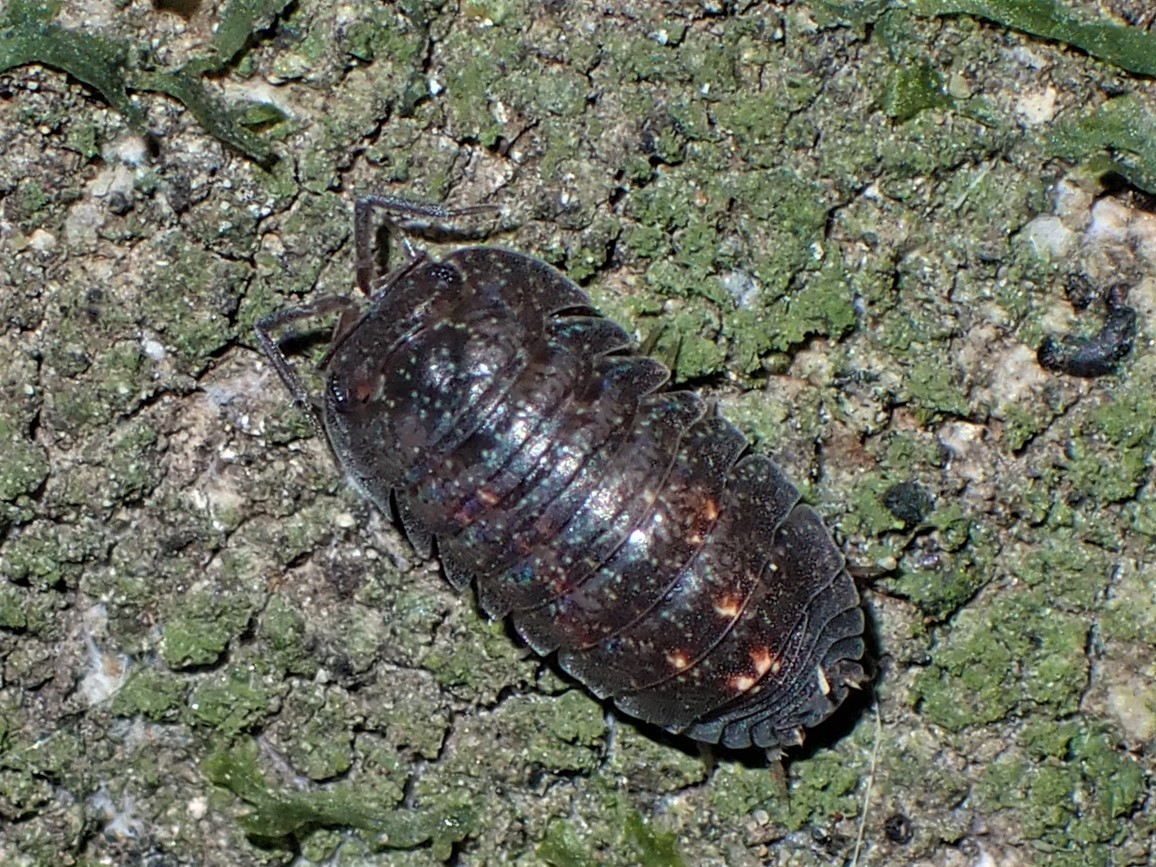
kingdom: Animalia
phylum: Arthropoda
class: Malacostraca
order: Isopoda
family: Armadillidae
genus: Cubaris
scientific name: Cubaris tarangensis
